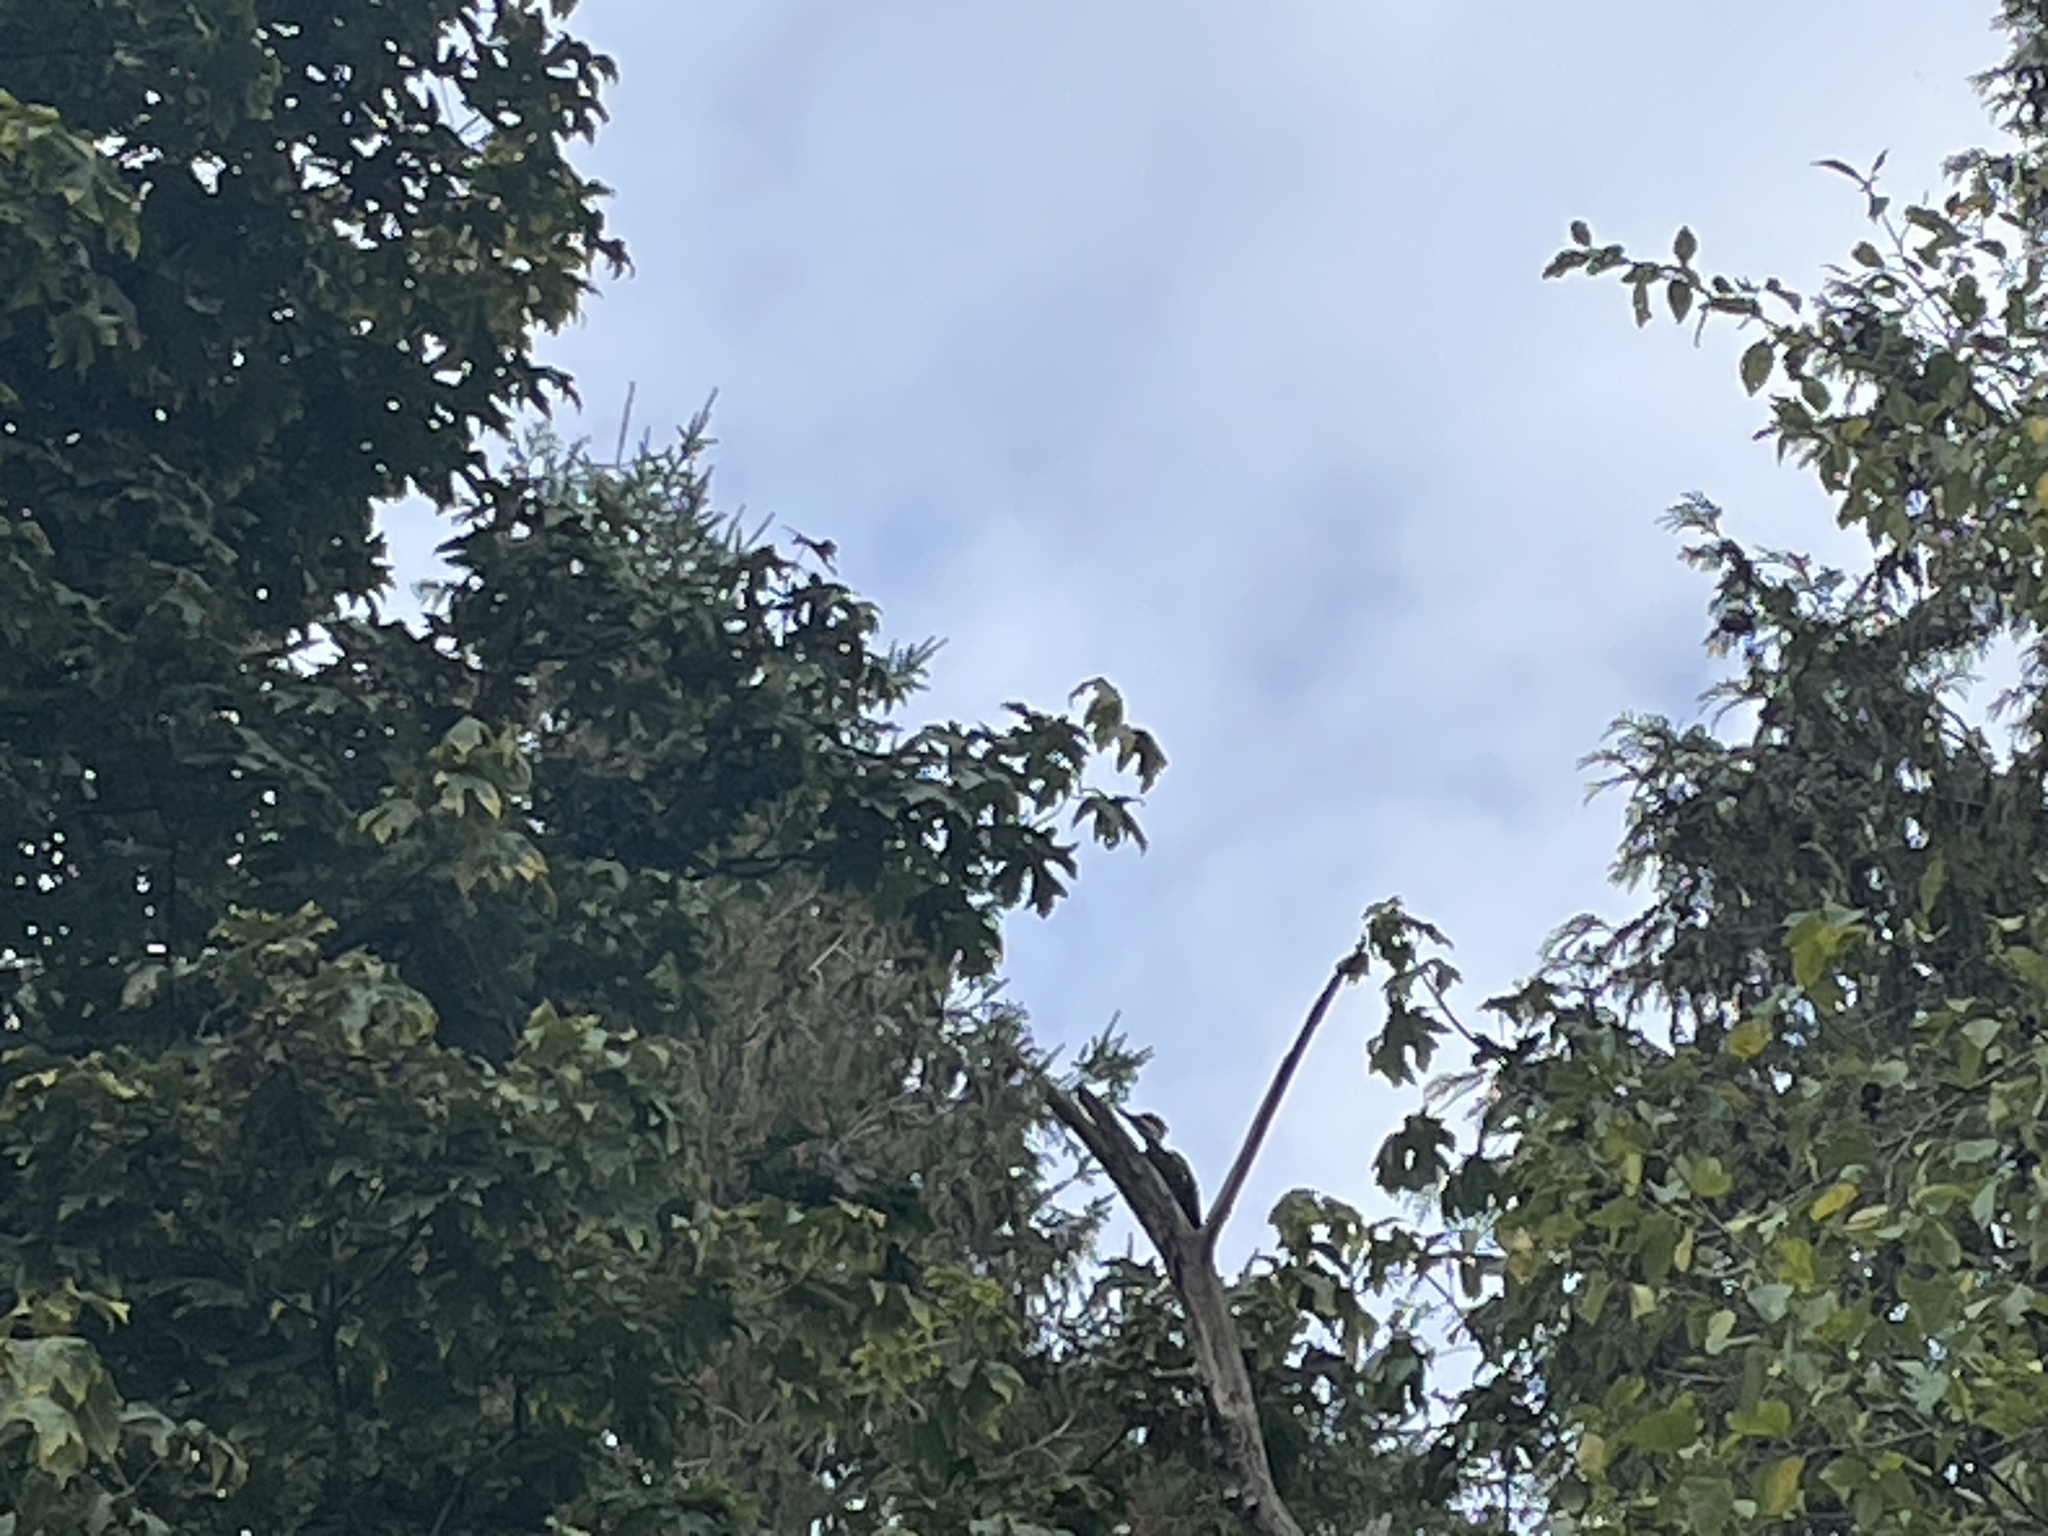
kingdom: Animalia
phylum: Chordata
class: Aves
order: Piciformes
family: Picidae
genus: Dryocopus
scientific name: Dryocopus pileatus
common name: Pileated woodpecker
